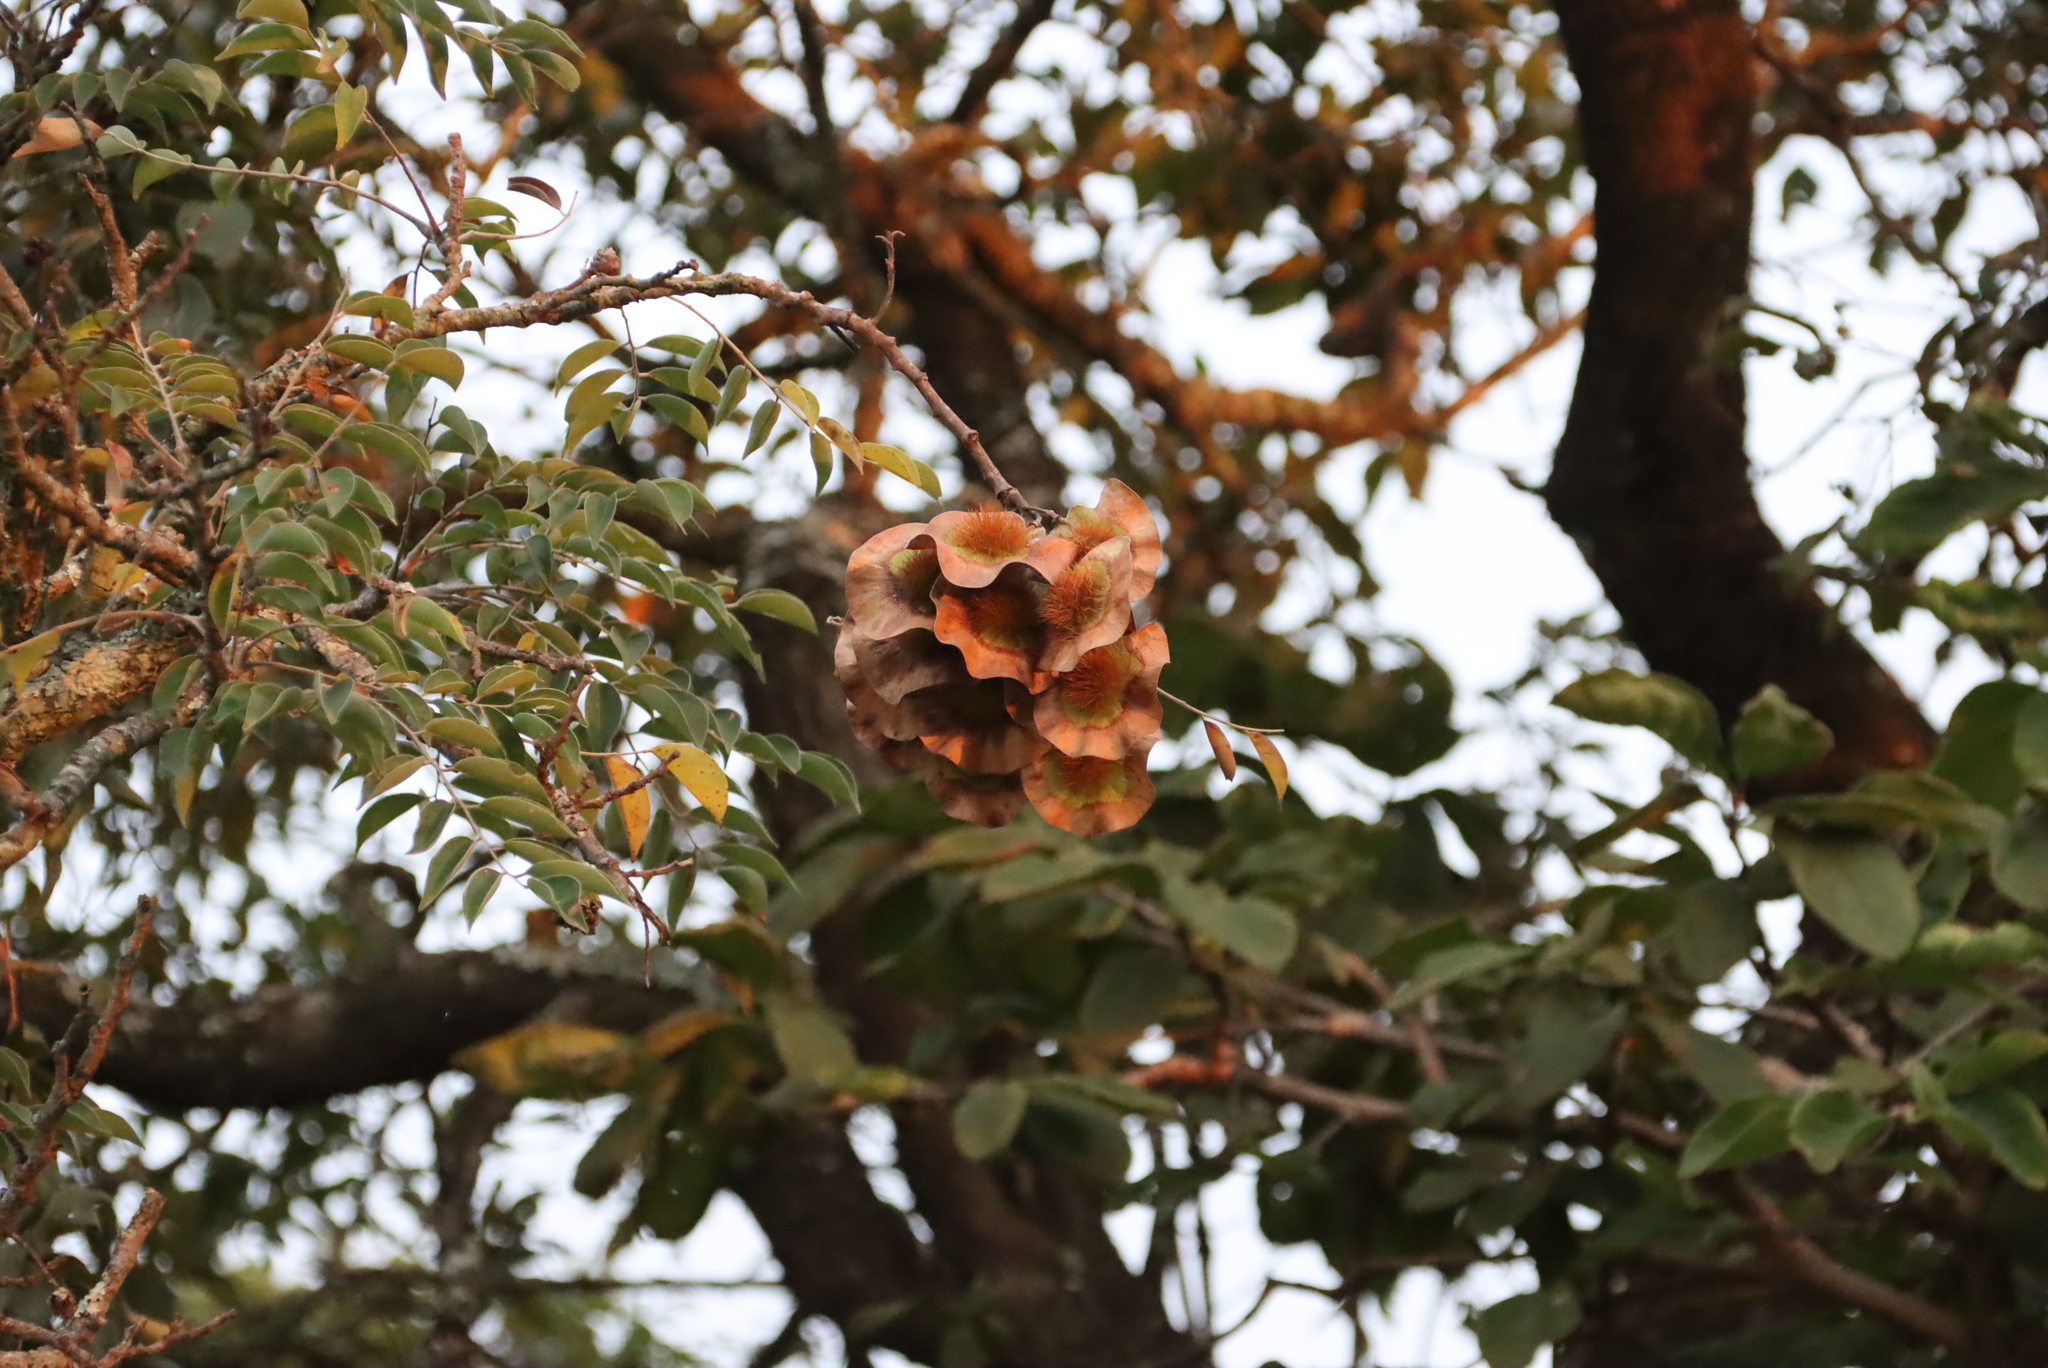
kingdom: Plantae
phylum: Tracheophyta
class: Magnoliopsida
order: Fabales
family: Fabaceae
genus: Pterocarpus
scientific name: Pterocarpus angolensis
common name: Bloodwood tree
